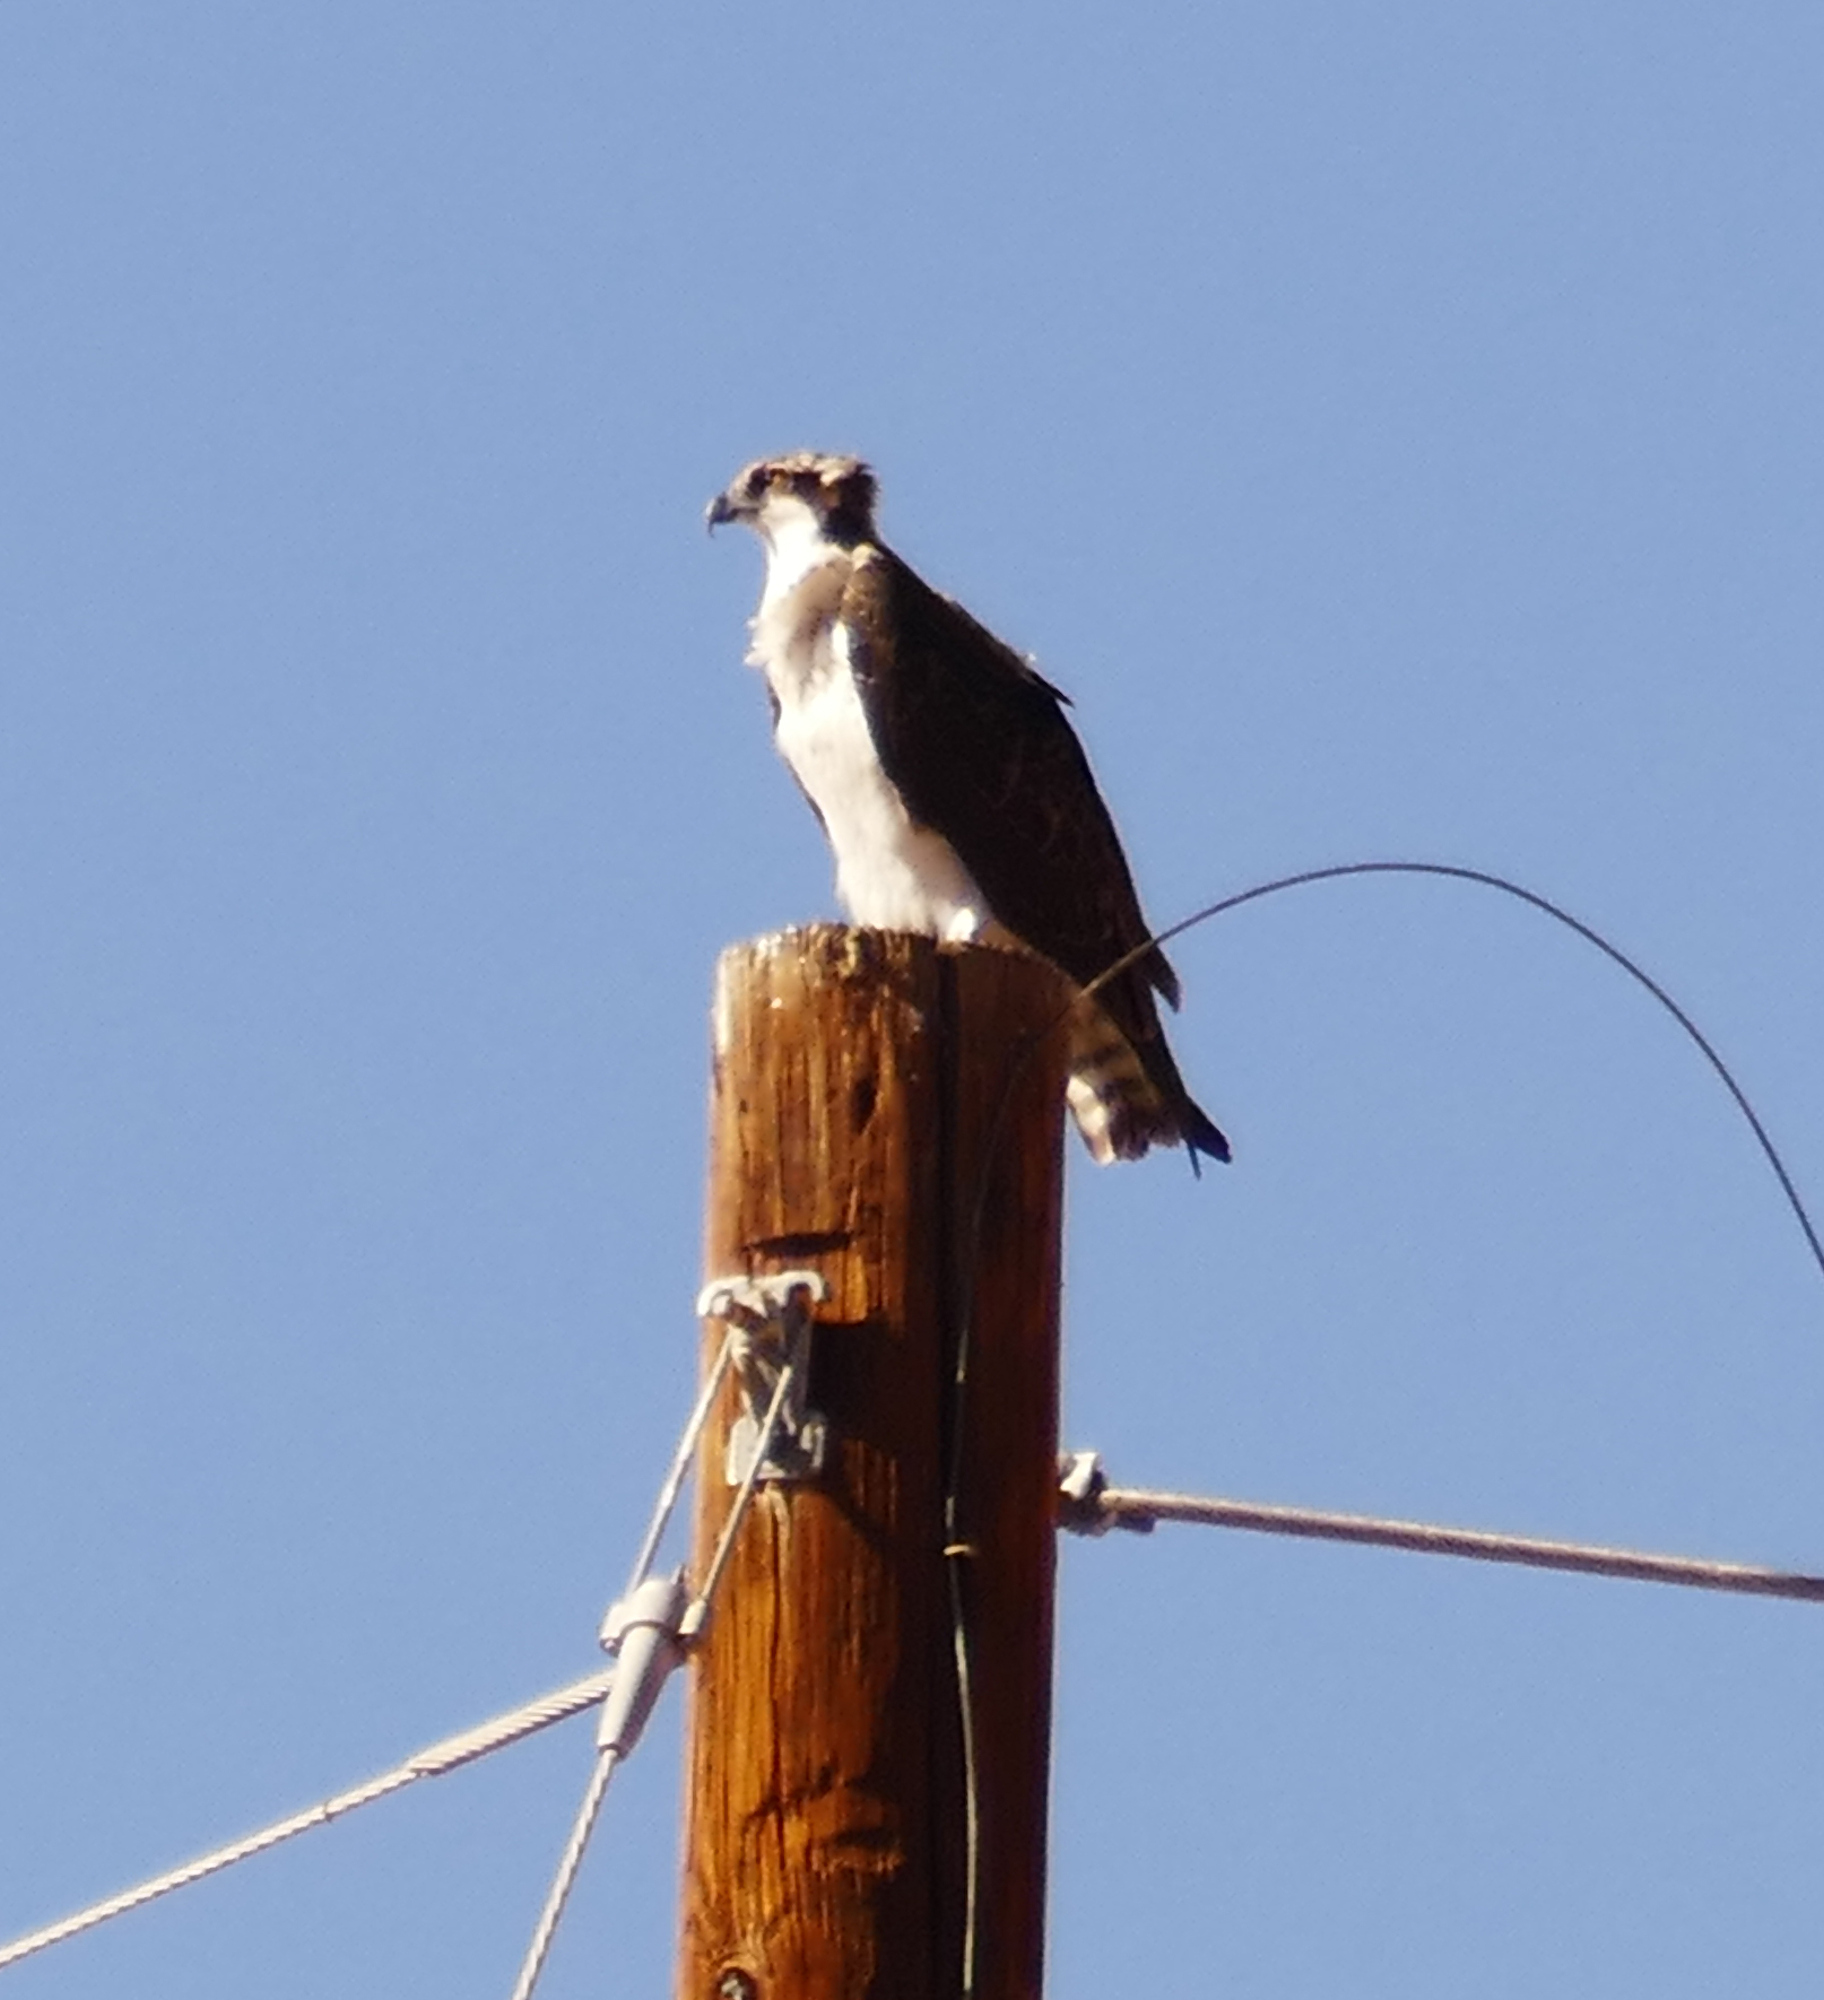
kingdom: Animalia
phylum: Chordata
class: Aves
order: Accipitriformes
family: Pandionidae
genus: Pandion
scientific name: Pandion haliaetus
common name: Osprey
